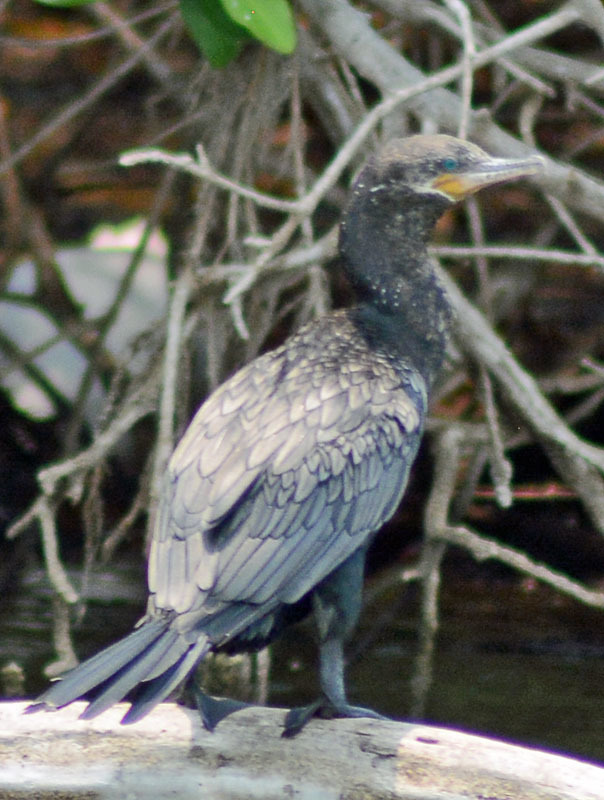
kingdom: Animalia
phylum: Chordata
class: Aves
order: Suliformes
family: Phalacrocoracidae
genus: Phalacrocorax
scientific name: Phalacrocorax brasilianus
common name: Neotropic cormorant
